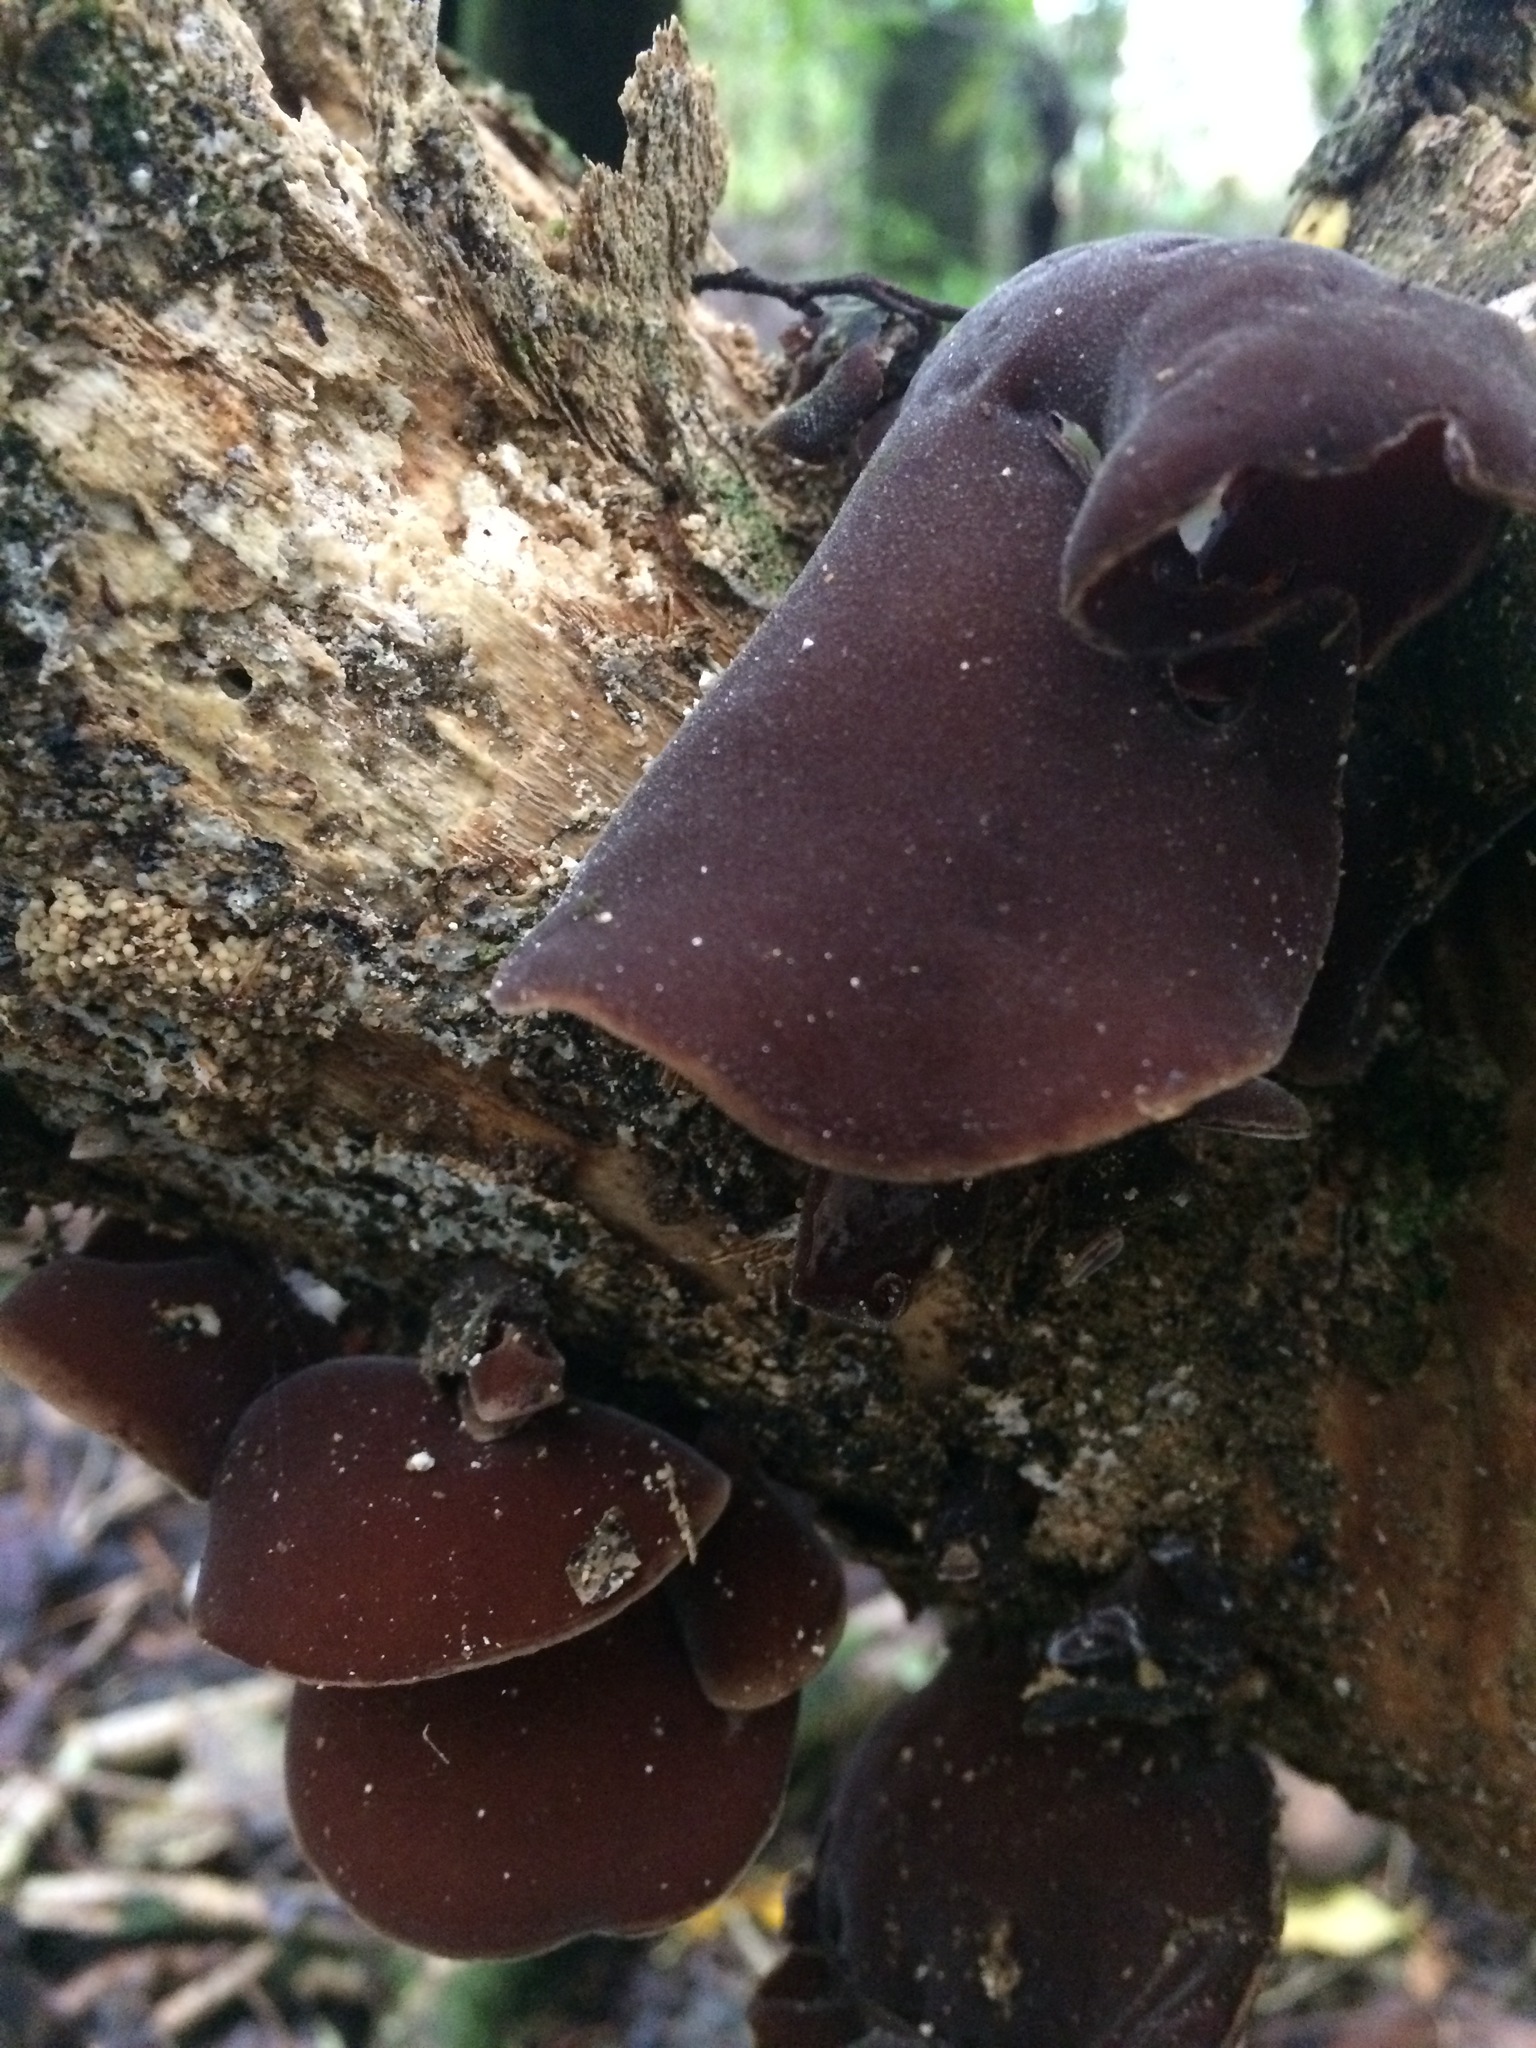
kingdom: Fungi
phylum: Basidiomycota
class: Agaricomycetes
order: Auriculariales
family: Auriculariaceae
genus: Auricularia
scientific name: Auricularia cornea
